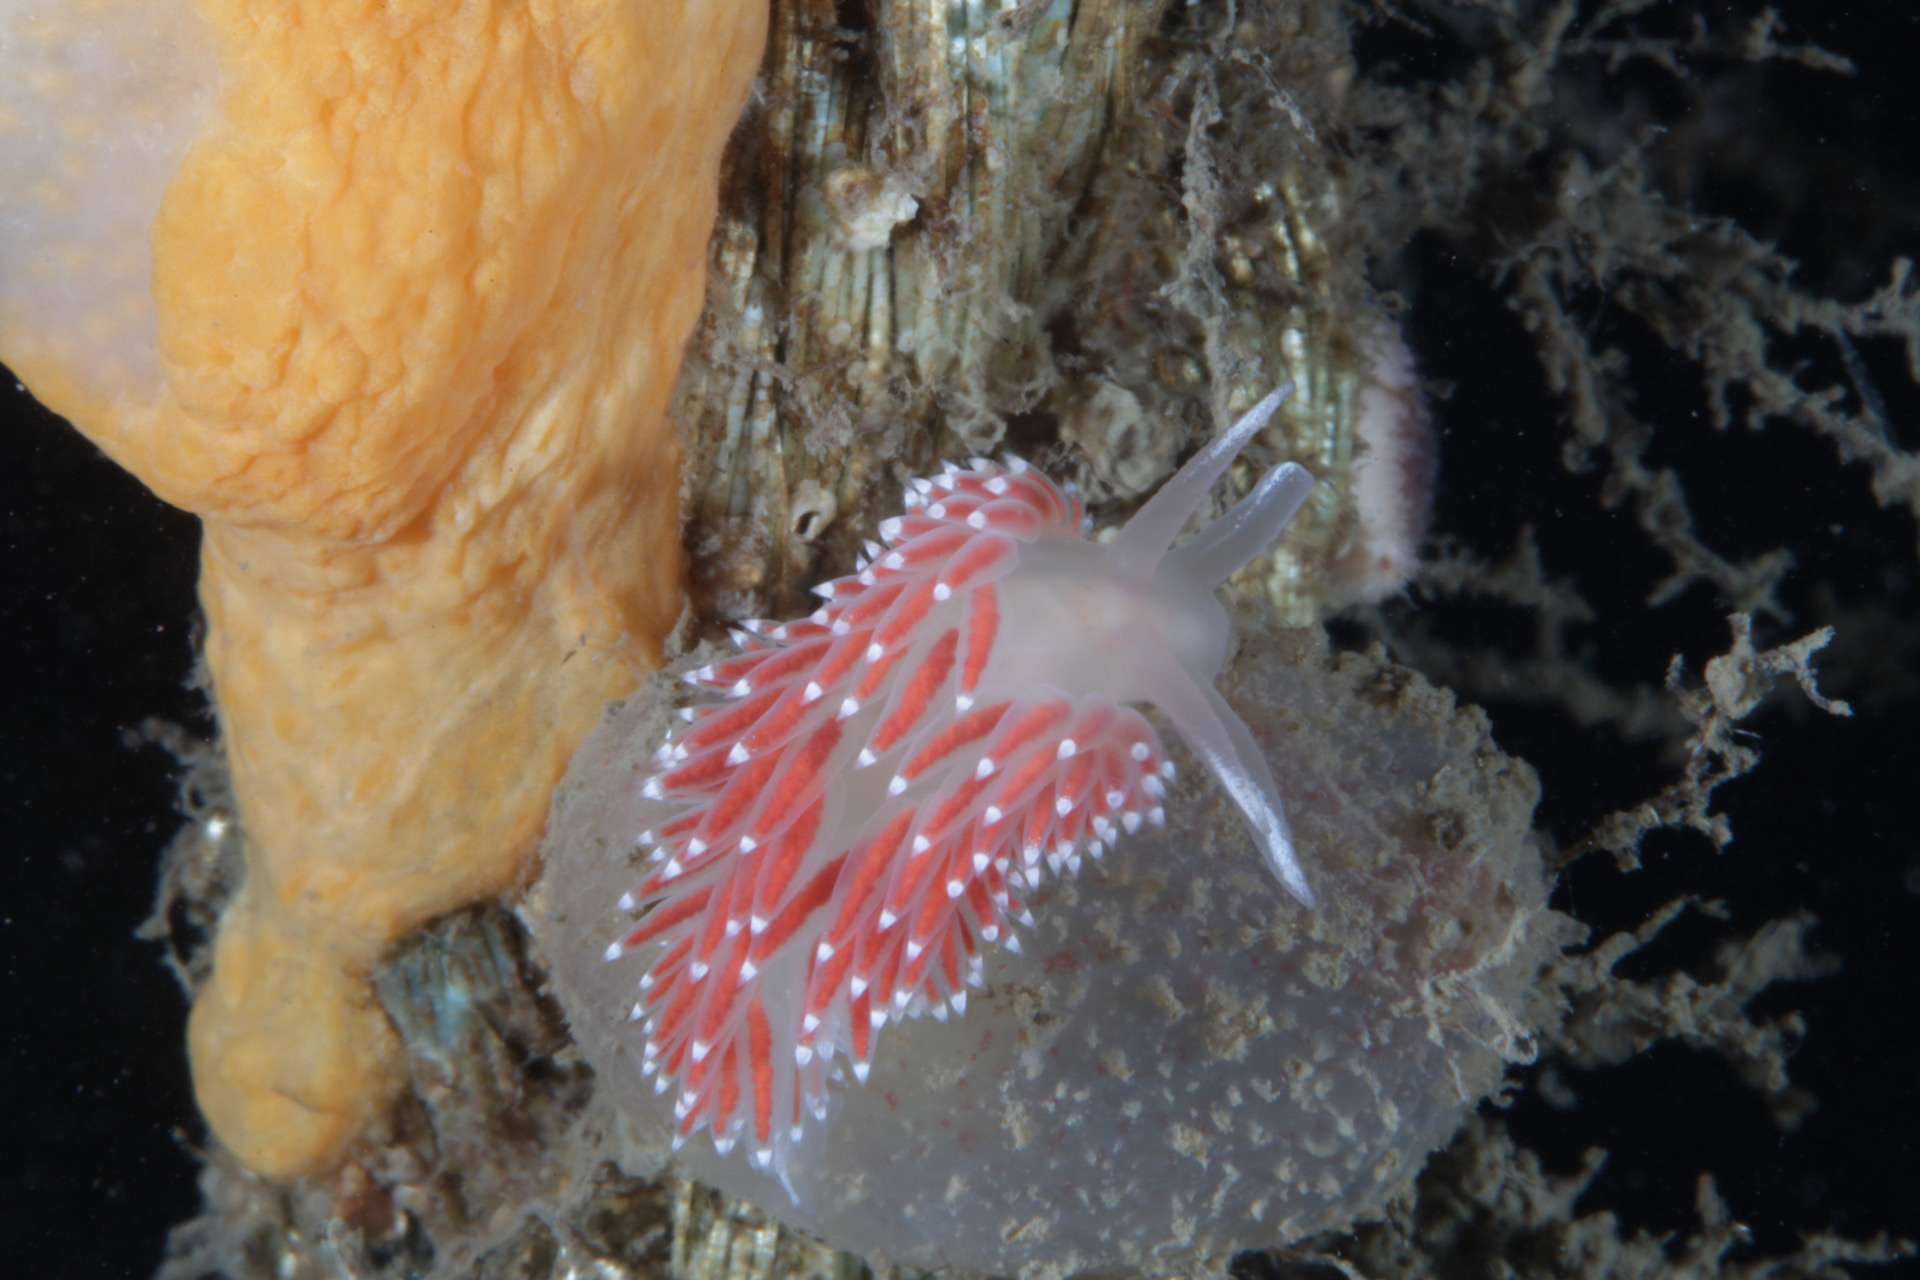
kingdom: Animalia
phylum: Mollusca
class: Gastropoda
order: Nudibranchia
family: Coryphellidae
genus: Coryphella
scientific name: Coryphella verrucosa
